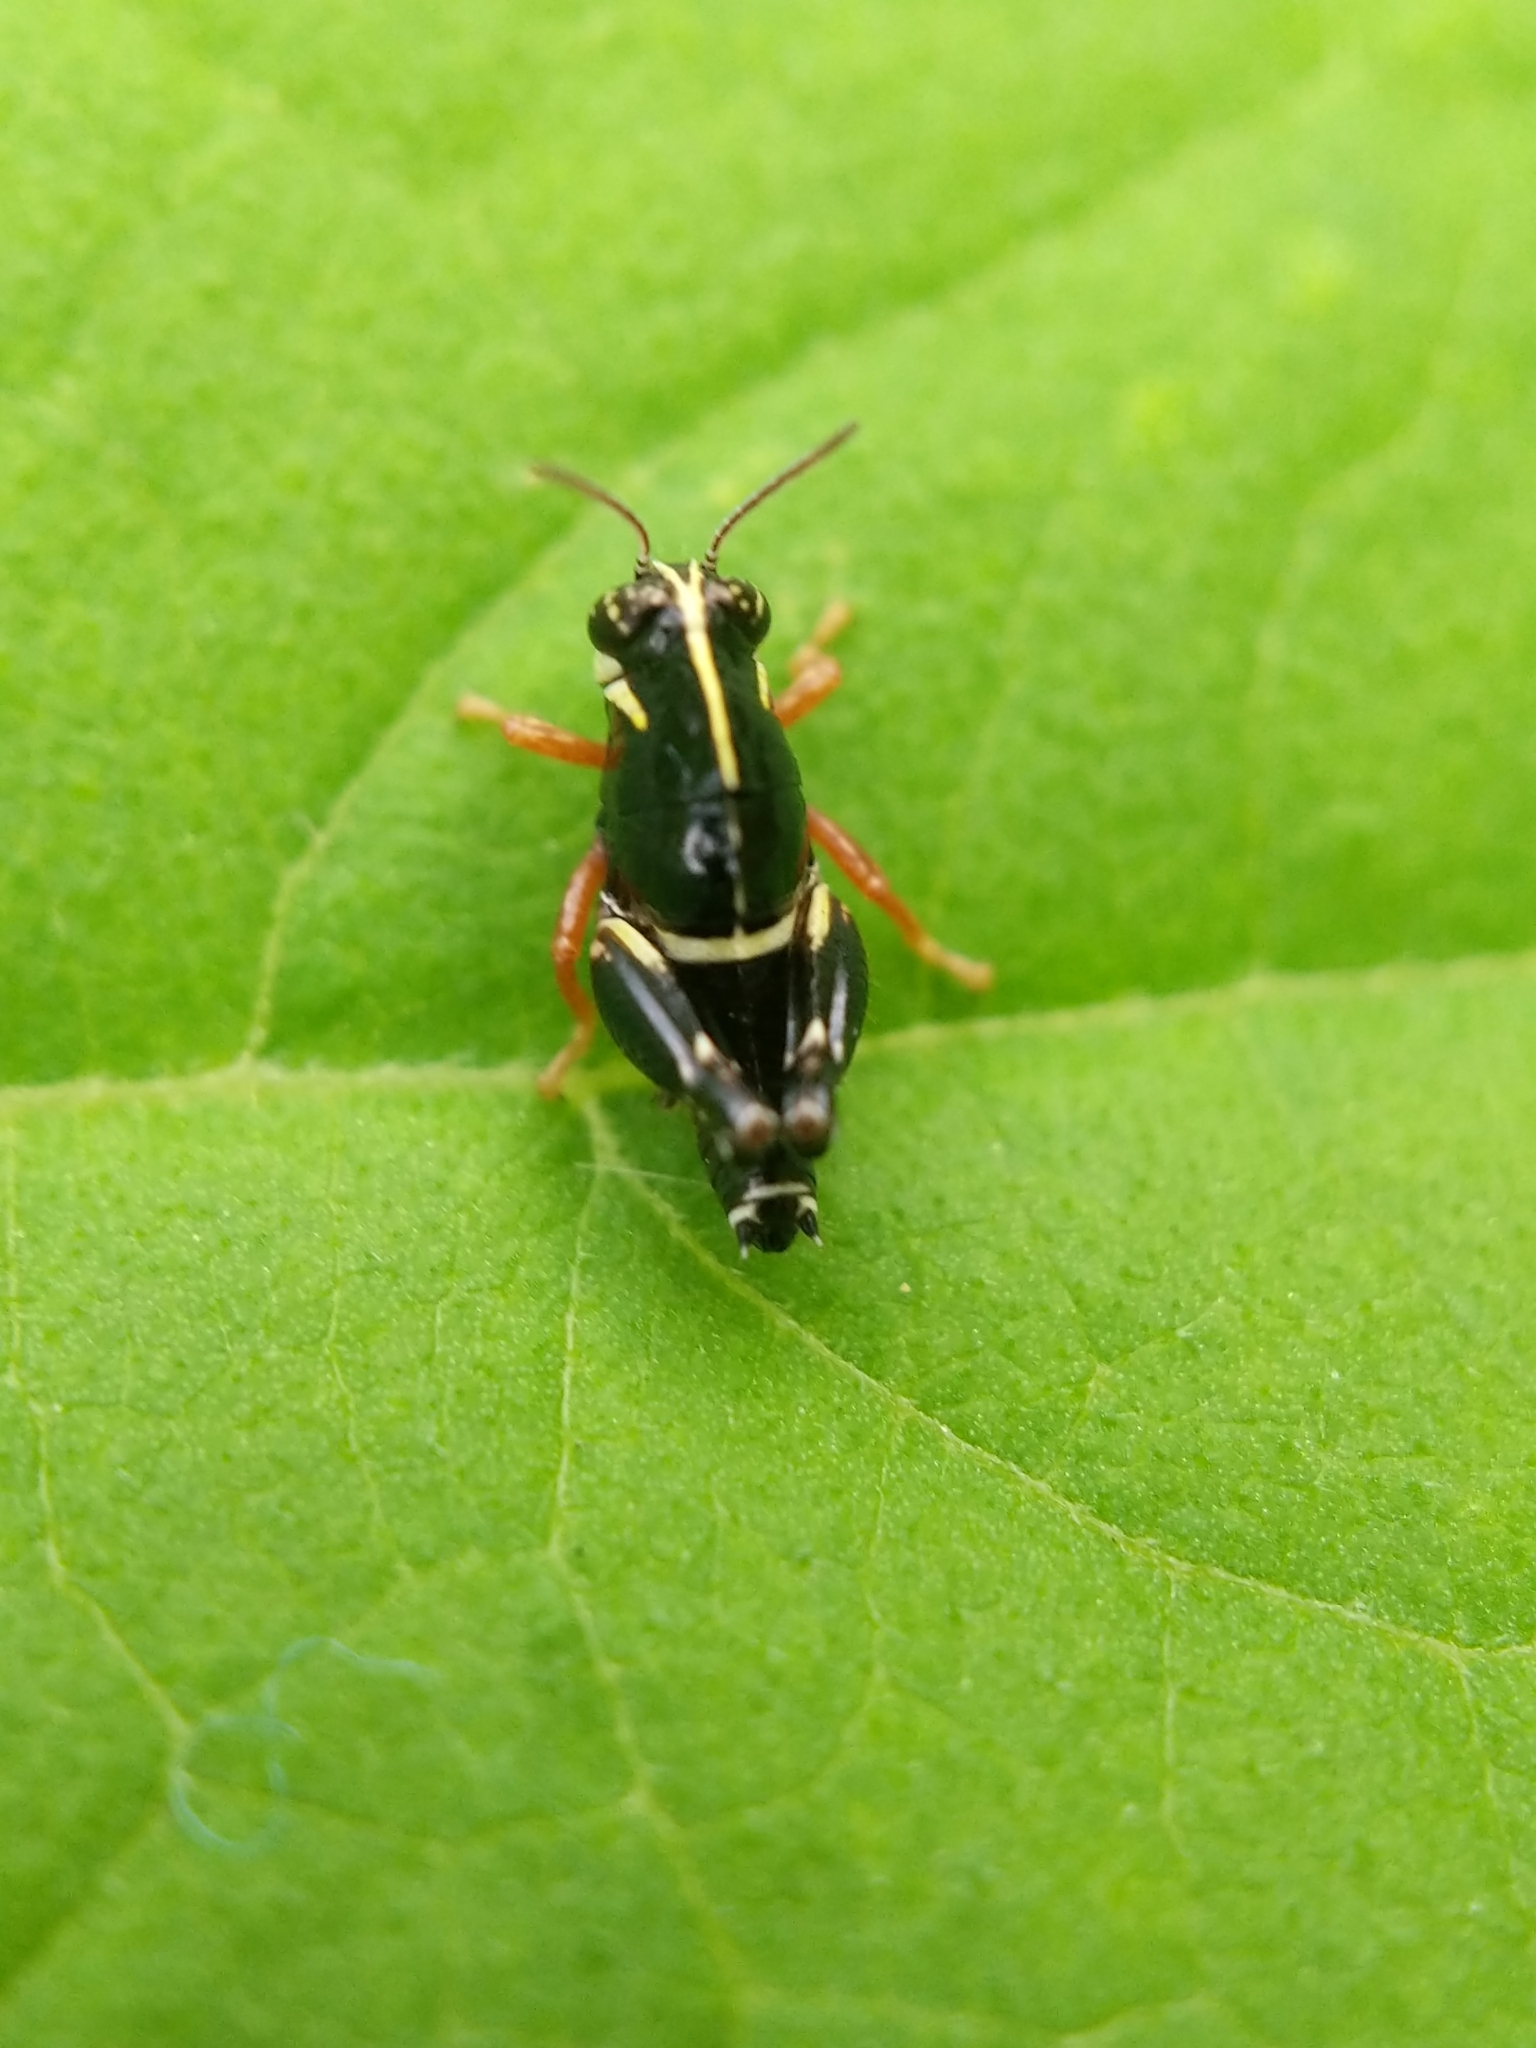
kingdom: Animalia
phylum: Arthropoda
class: Insecta
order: Orthoptera
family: Acrididae
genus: Aidemona
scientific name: Aidemona azteca
